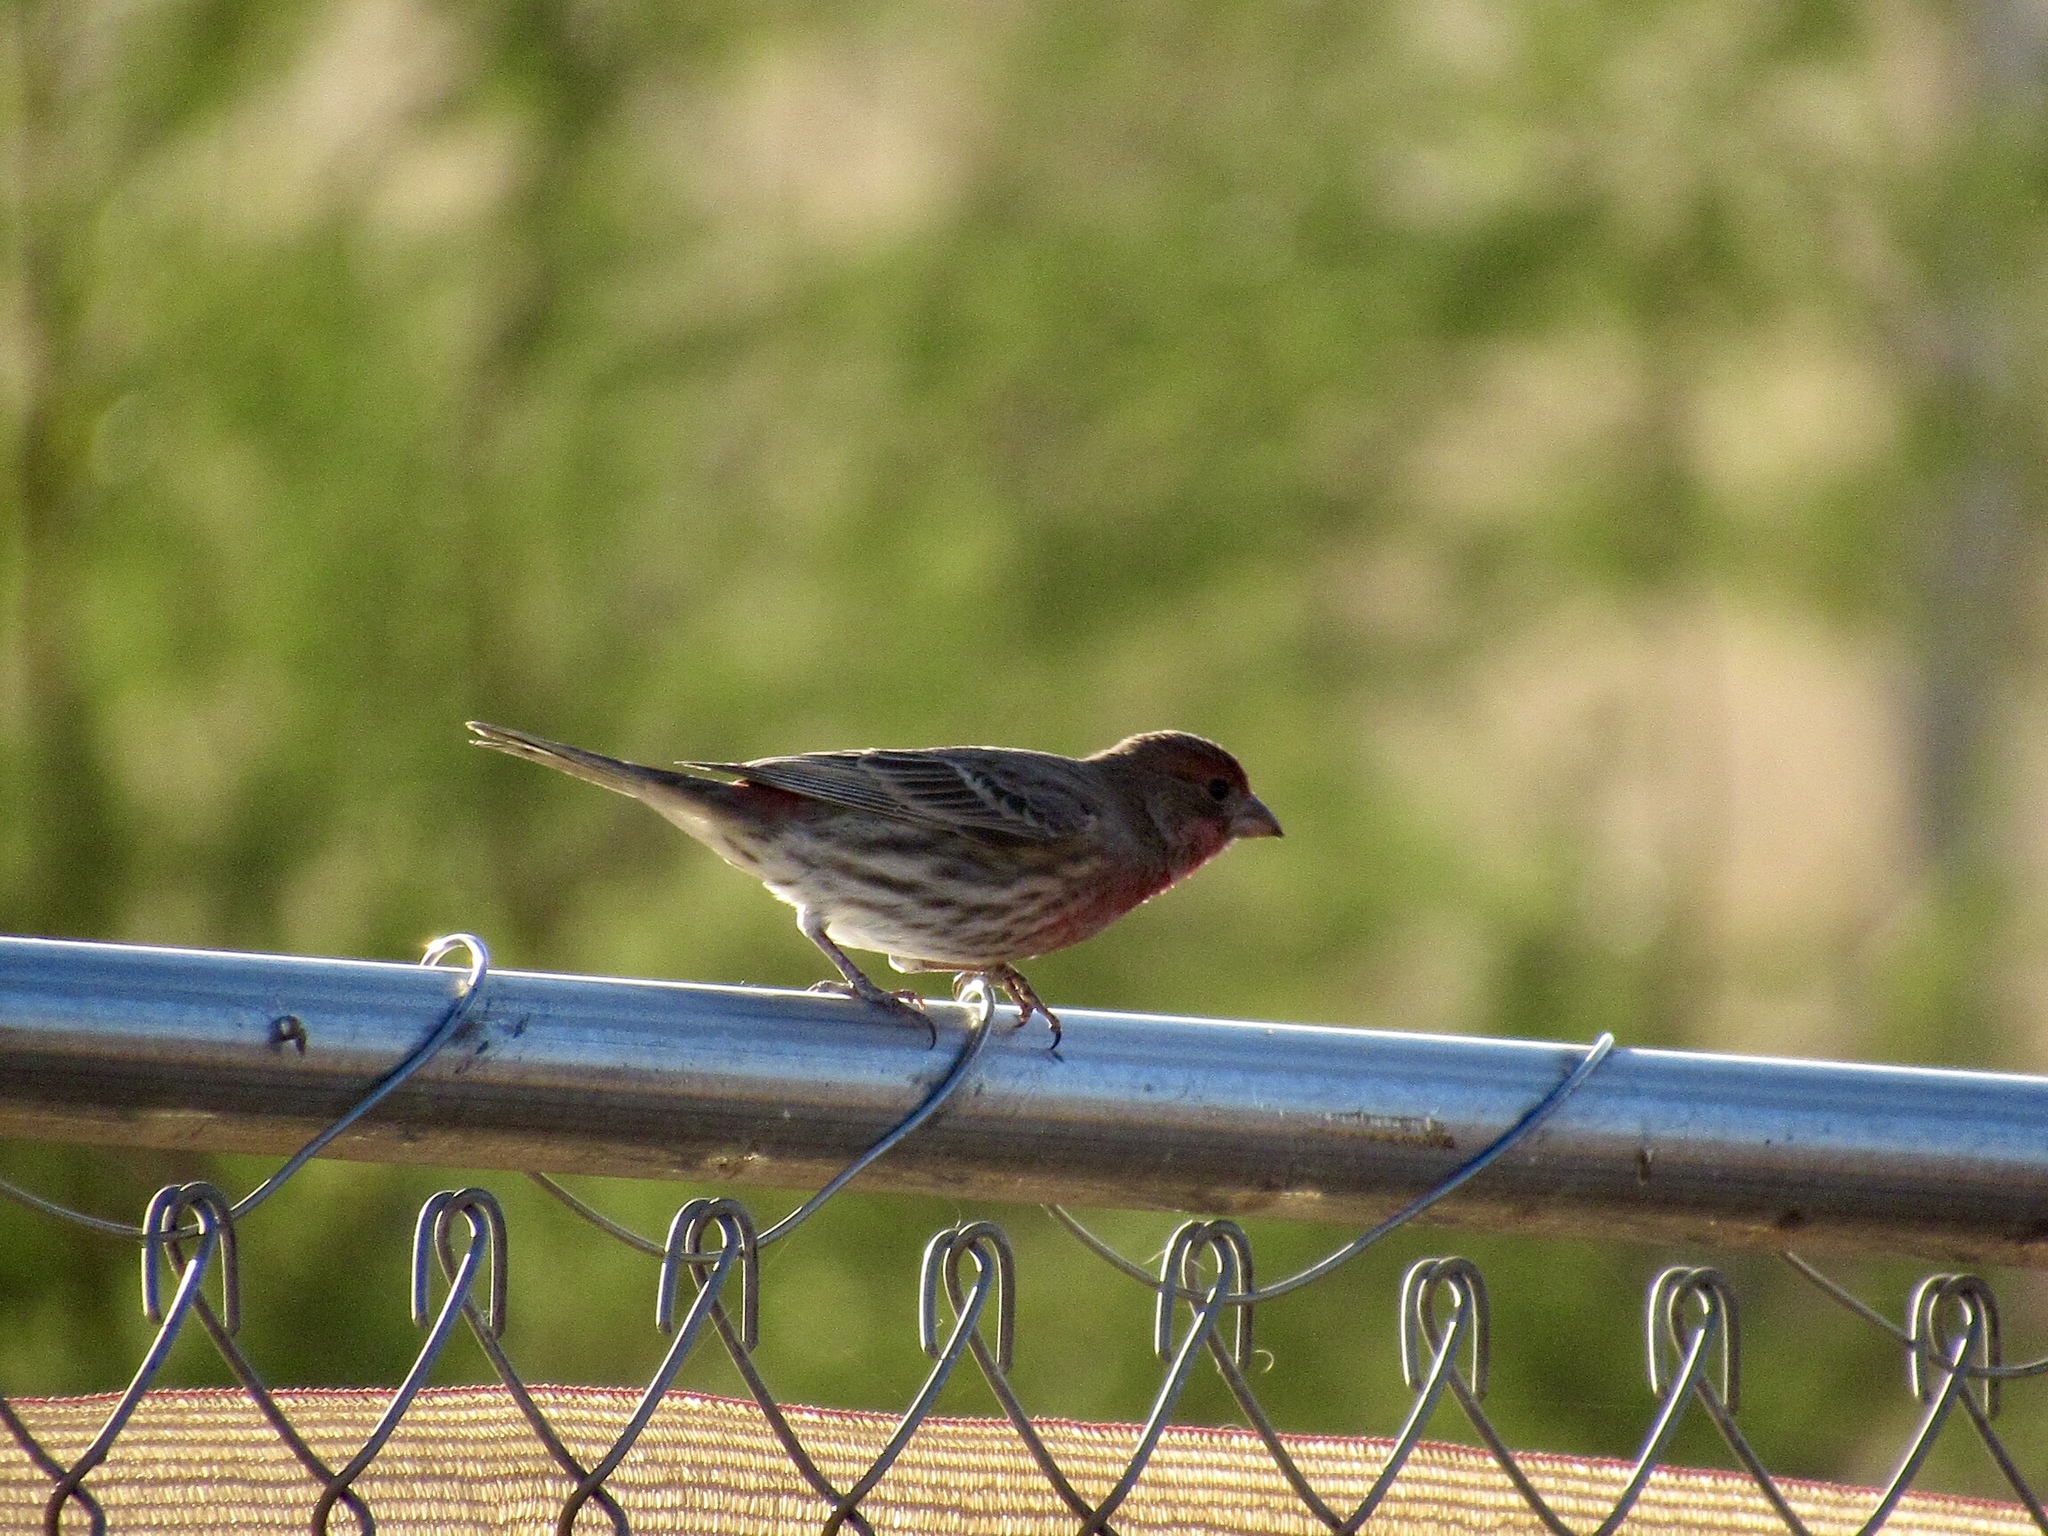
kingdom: Animalia
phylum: Chordata
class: Aves
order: Passeriformes
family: Fringillidae
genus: Haemorhous
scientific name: Haemorhous mexicanus
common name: House finch
